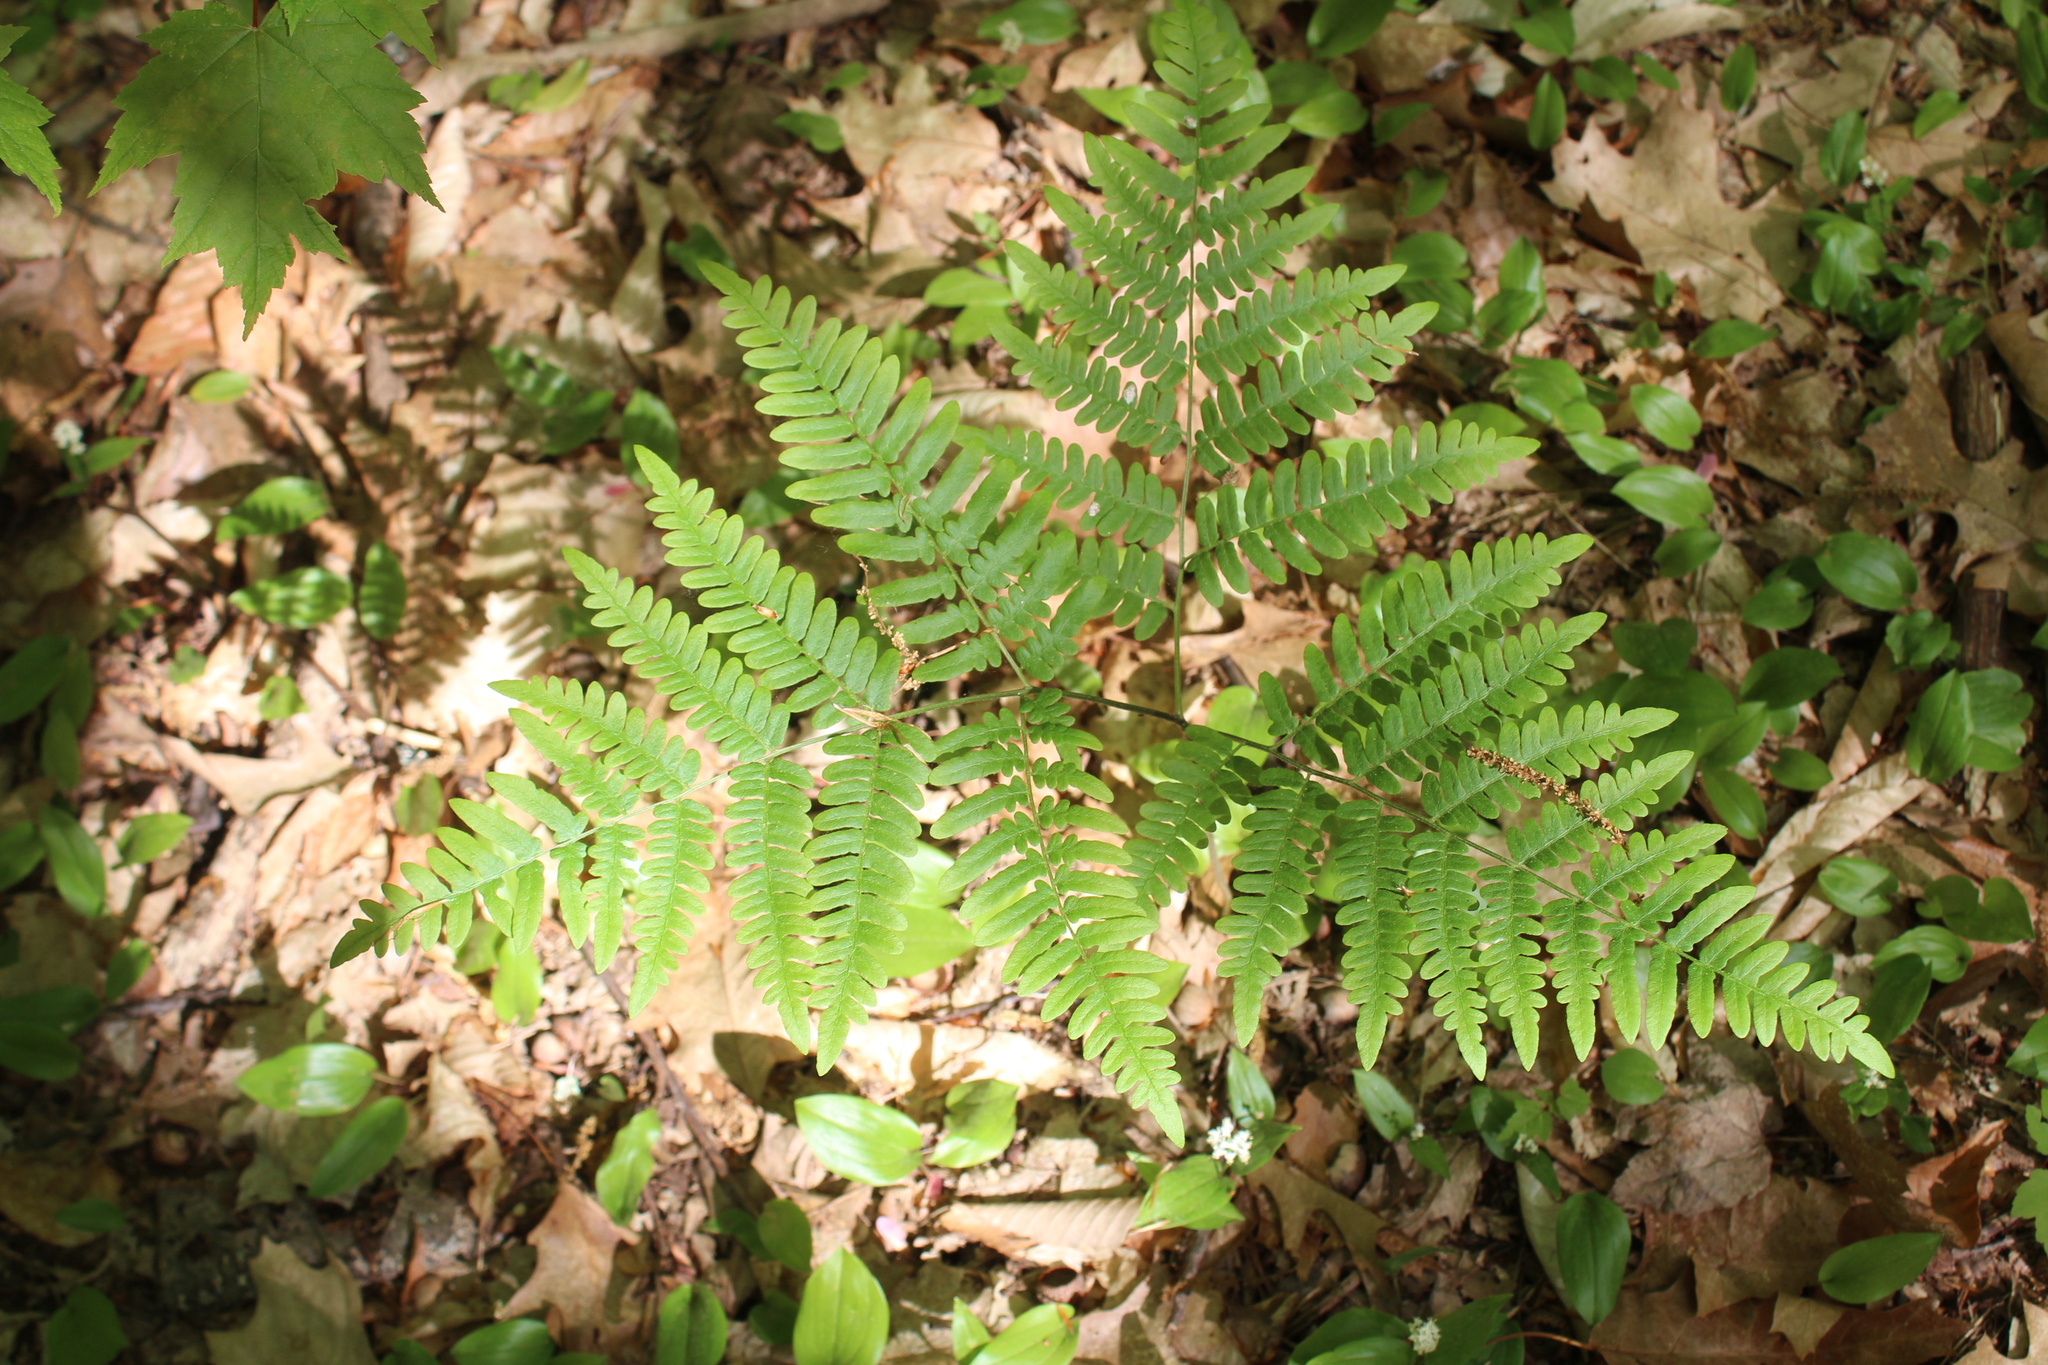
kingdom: Plantae
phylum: Tracheophyta
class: Polypodiopsida
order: Polypodiales
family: Dennstaedtiaceae
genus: Pteridium
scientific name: Pteridium aquilinum
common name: Bracken
